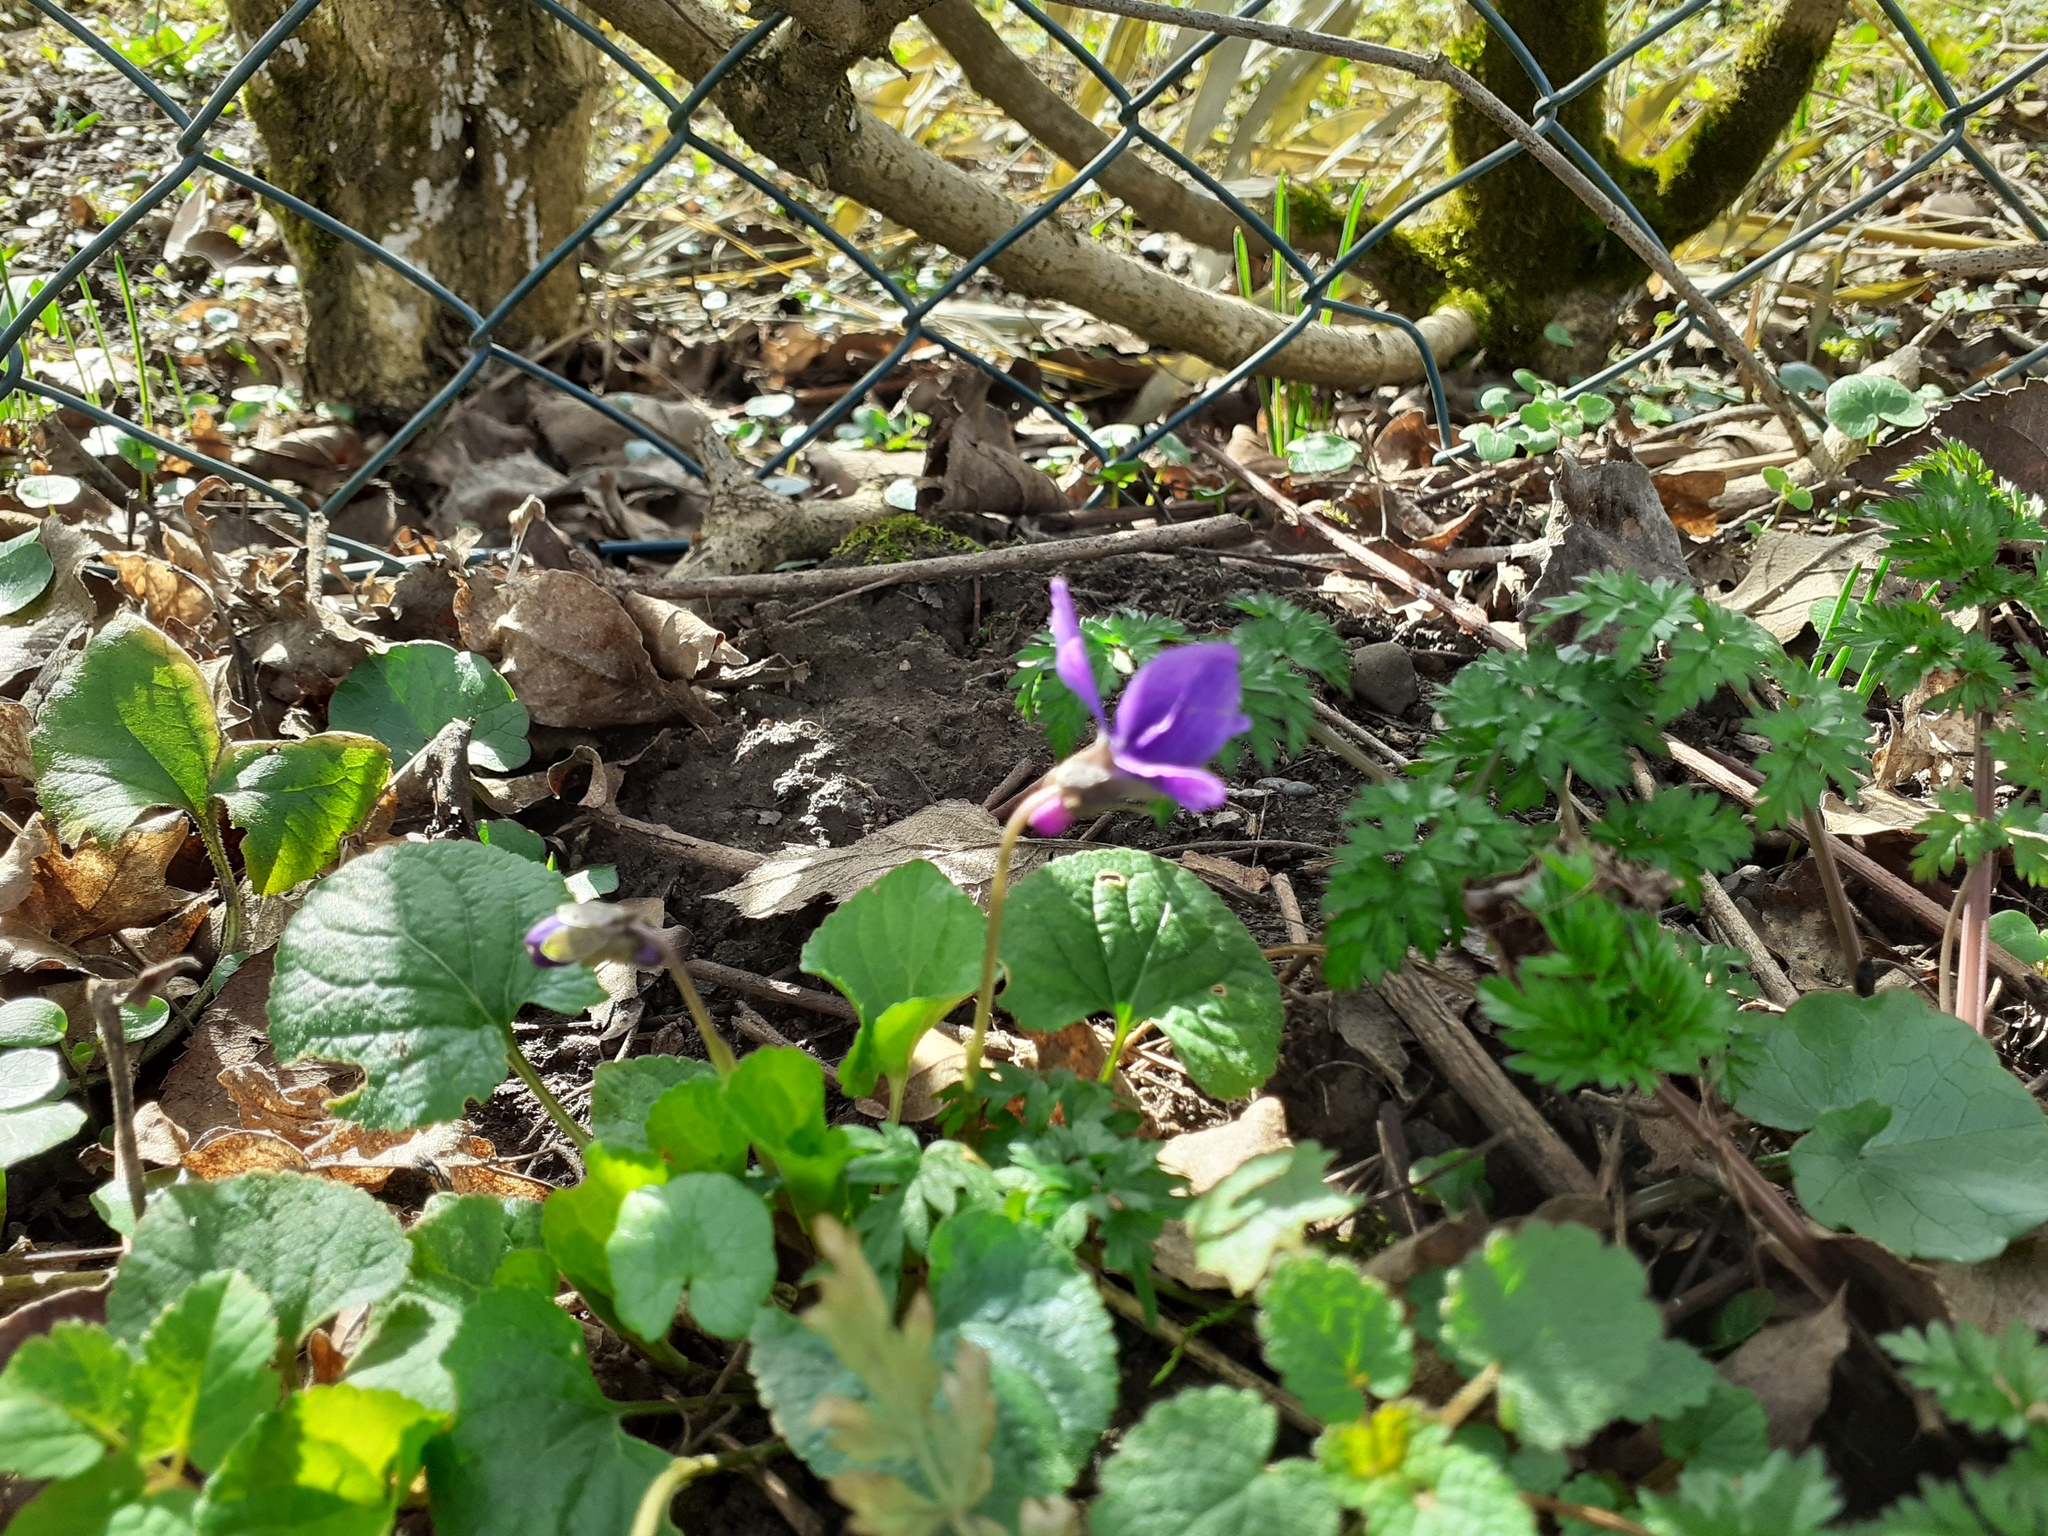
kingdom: Plantae
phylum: Tracheophyta
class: Magnoliopsida
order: Malpighiales
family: Violaceae
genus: Viola
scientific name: Viola odorata
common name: Sweet violet
